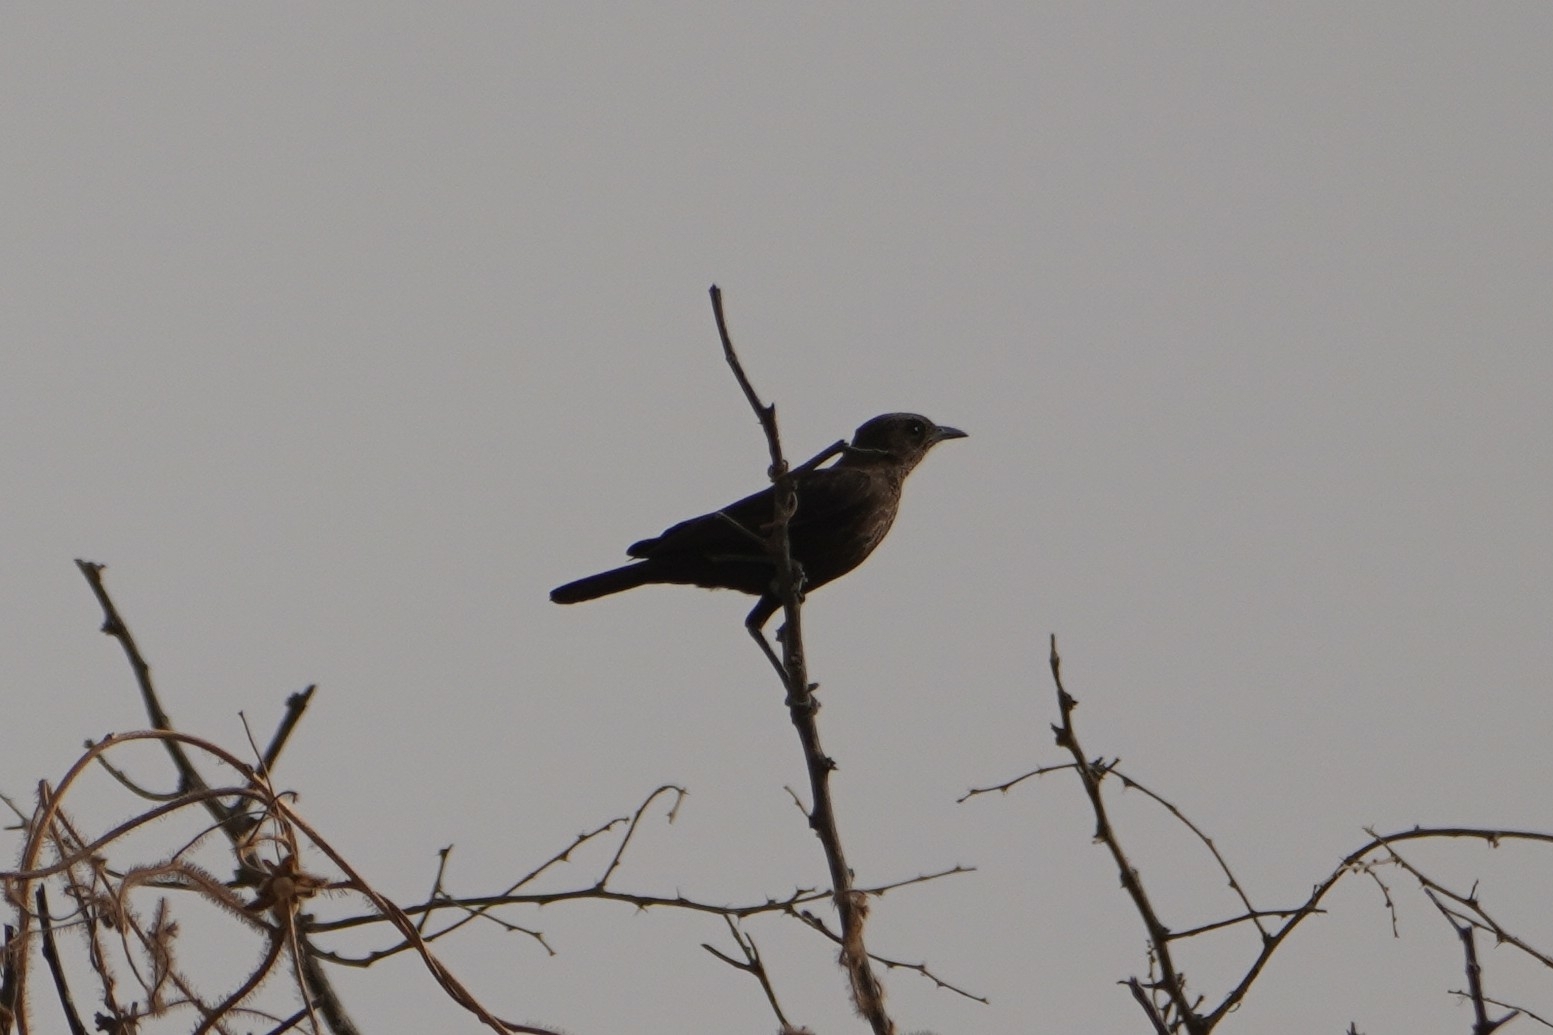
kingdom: Animalia
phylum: Chordata
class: Aves
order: Passeriformes
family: Muscicapidae
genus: Myrmecocichla
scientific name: Myrmecocichla aethiops
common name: Anteater chat
